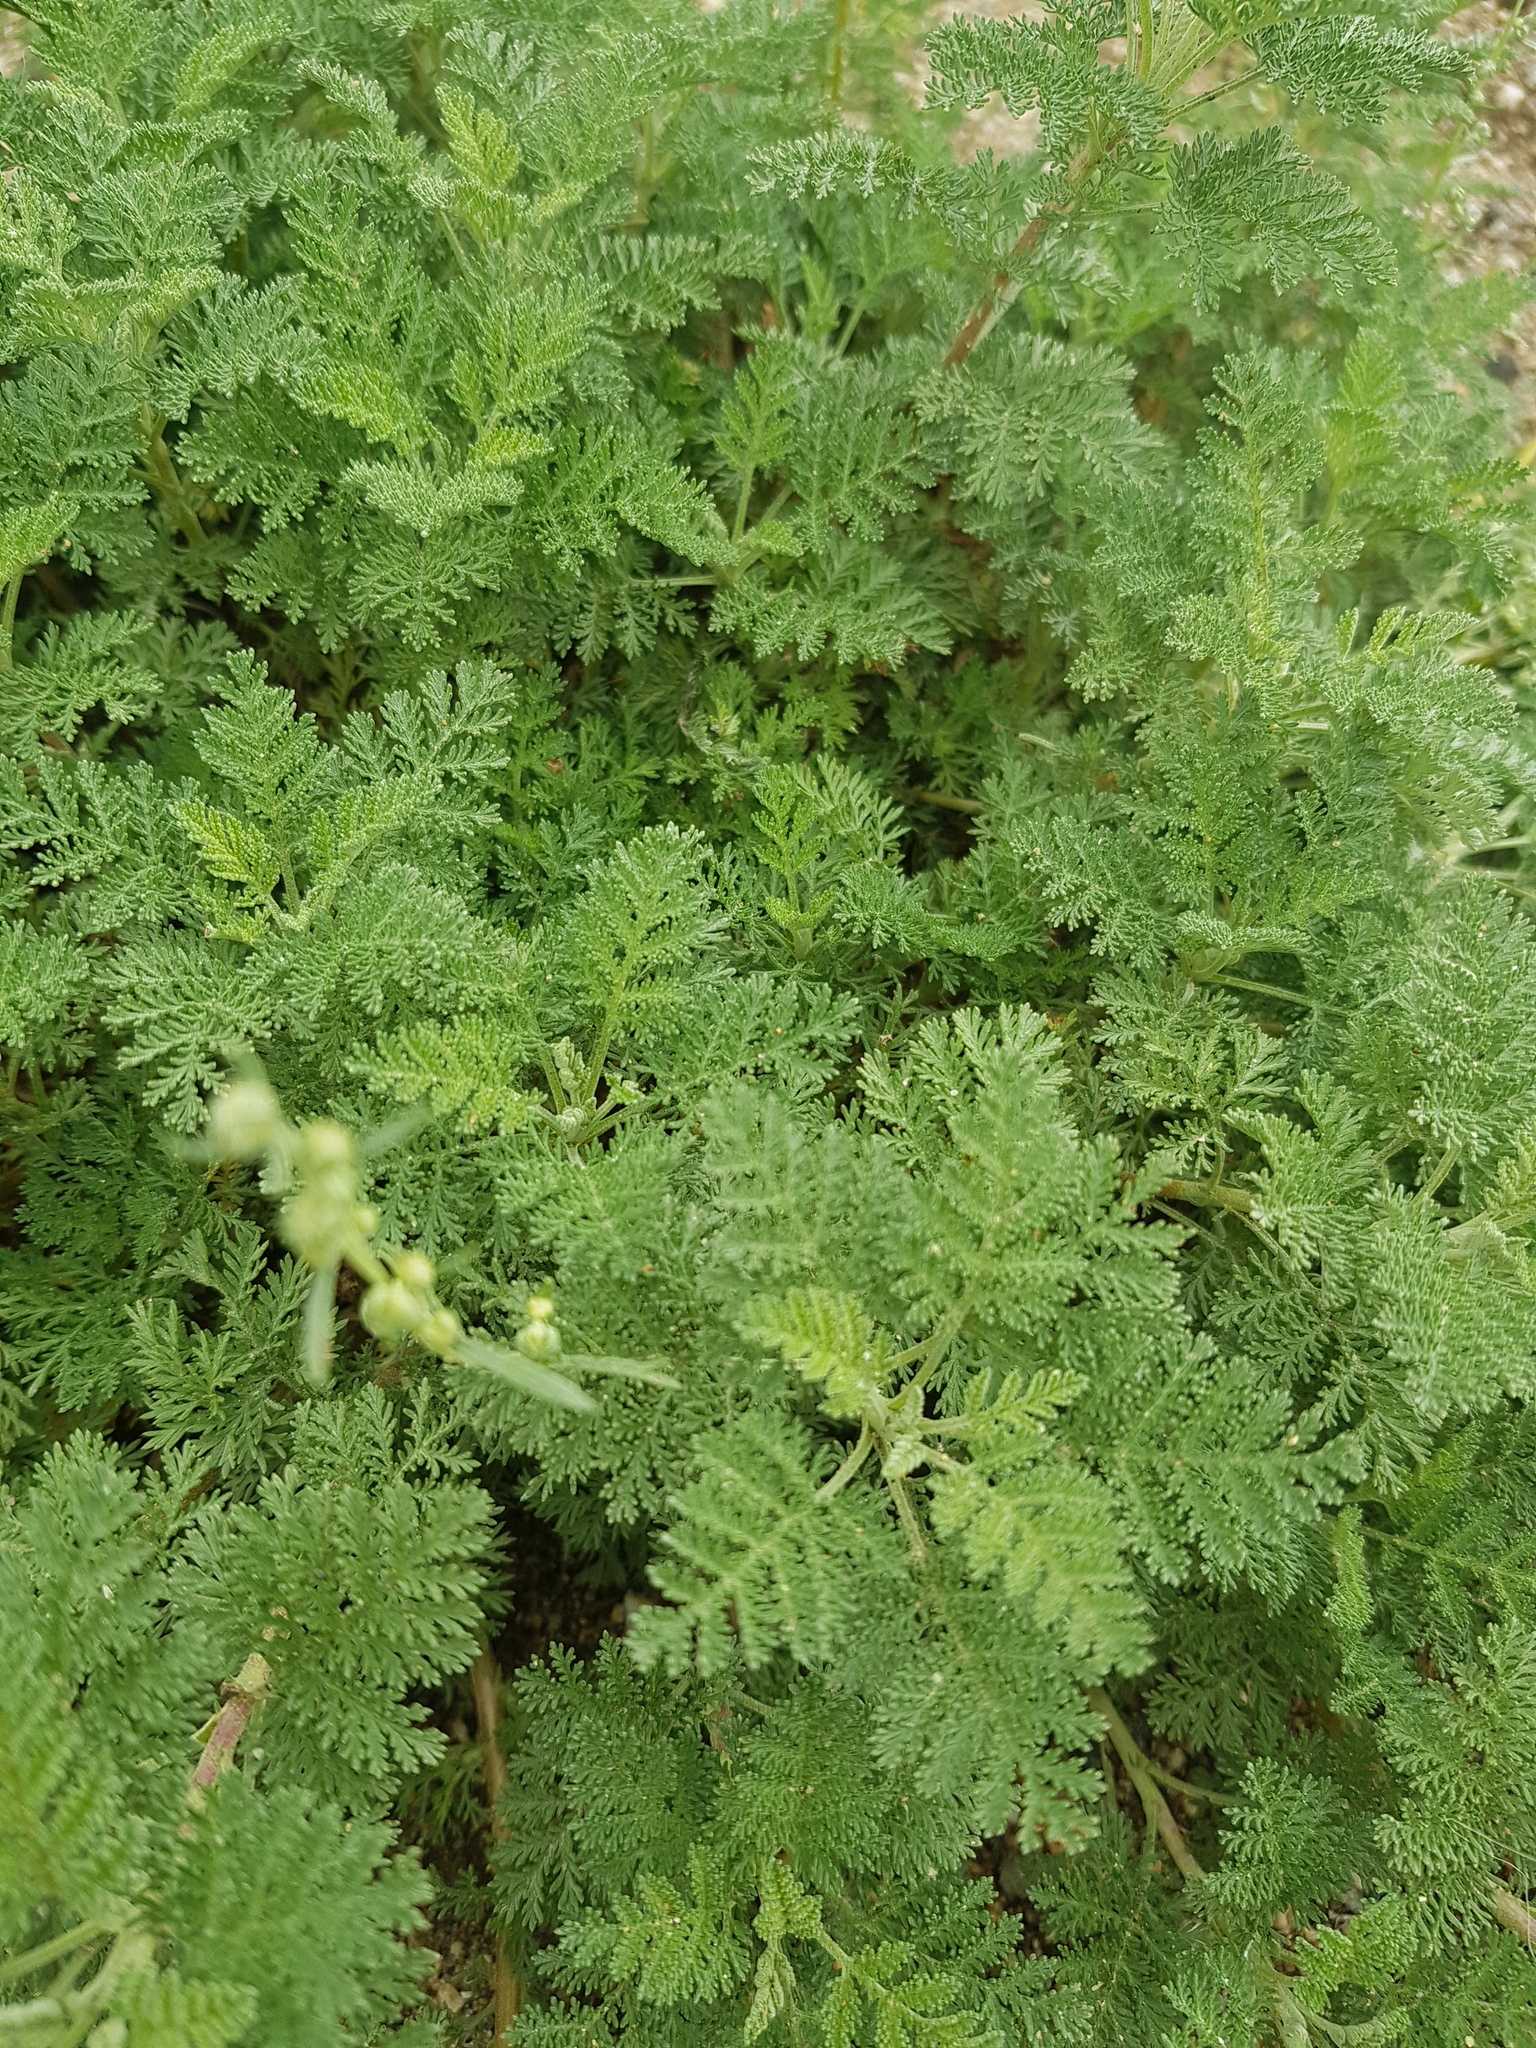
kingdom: Plantae
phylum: Tracheophyta
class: Magnoliopsida
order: Asterales
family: Asteraceae
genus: Artemisia
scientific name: Artemisia
